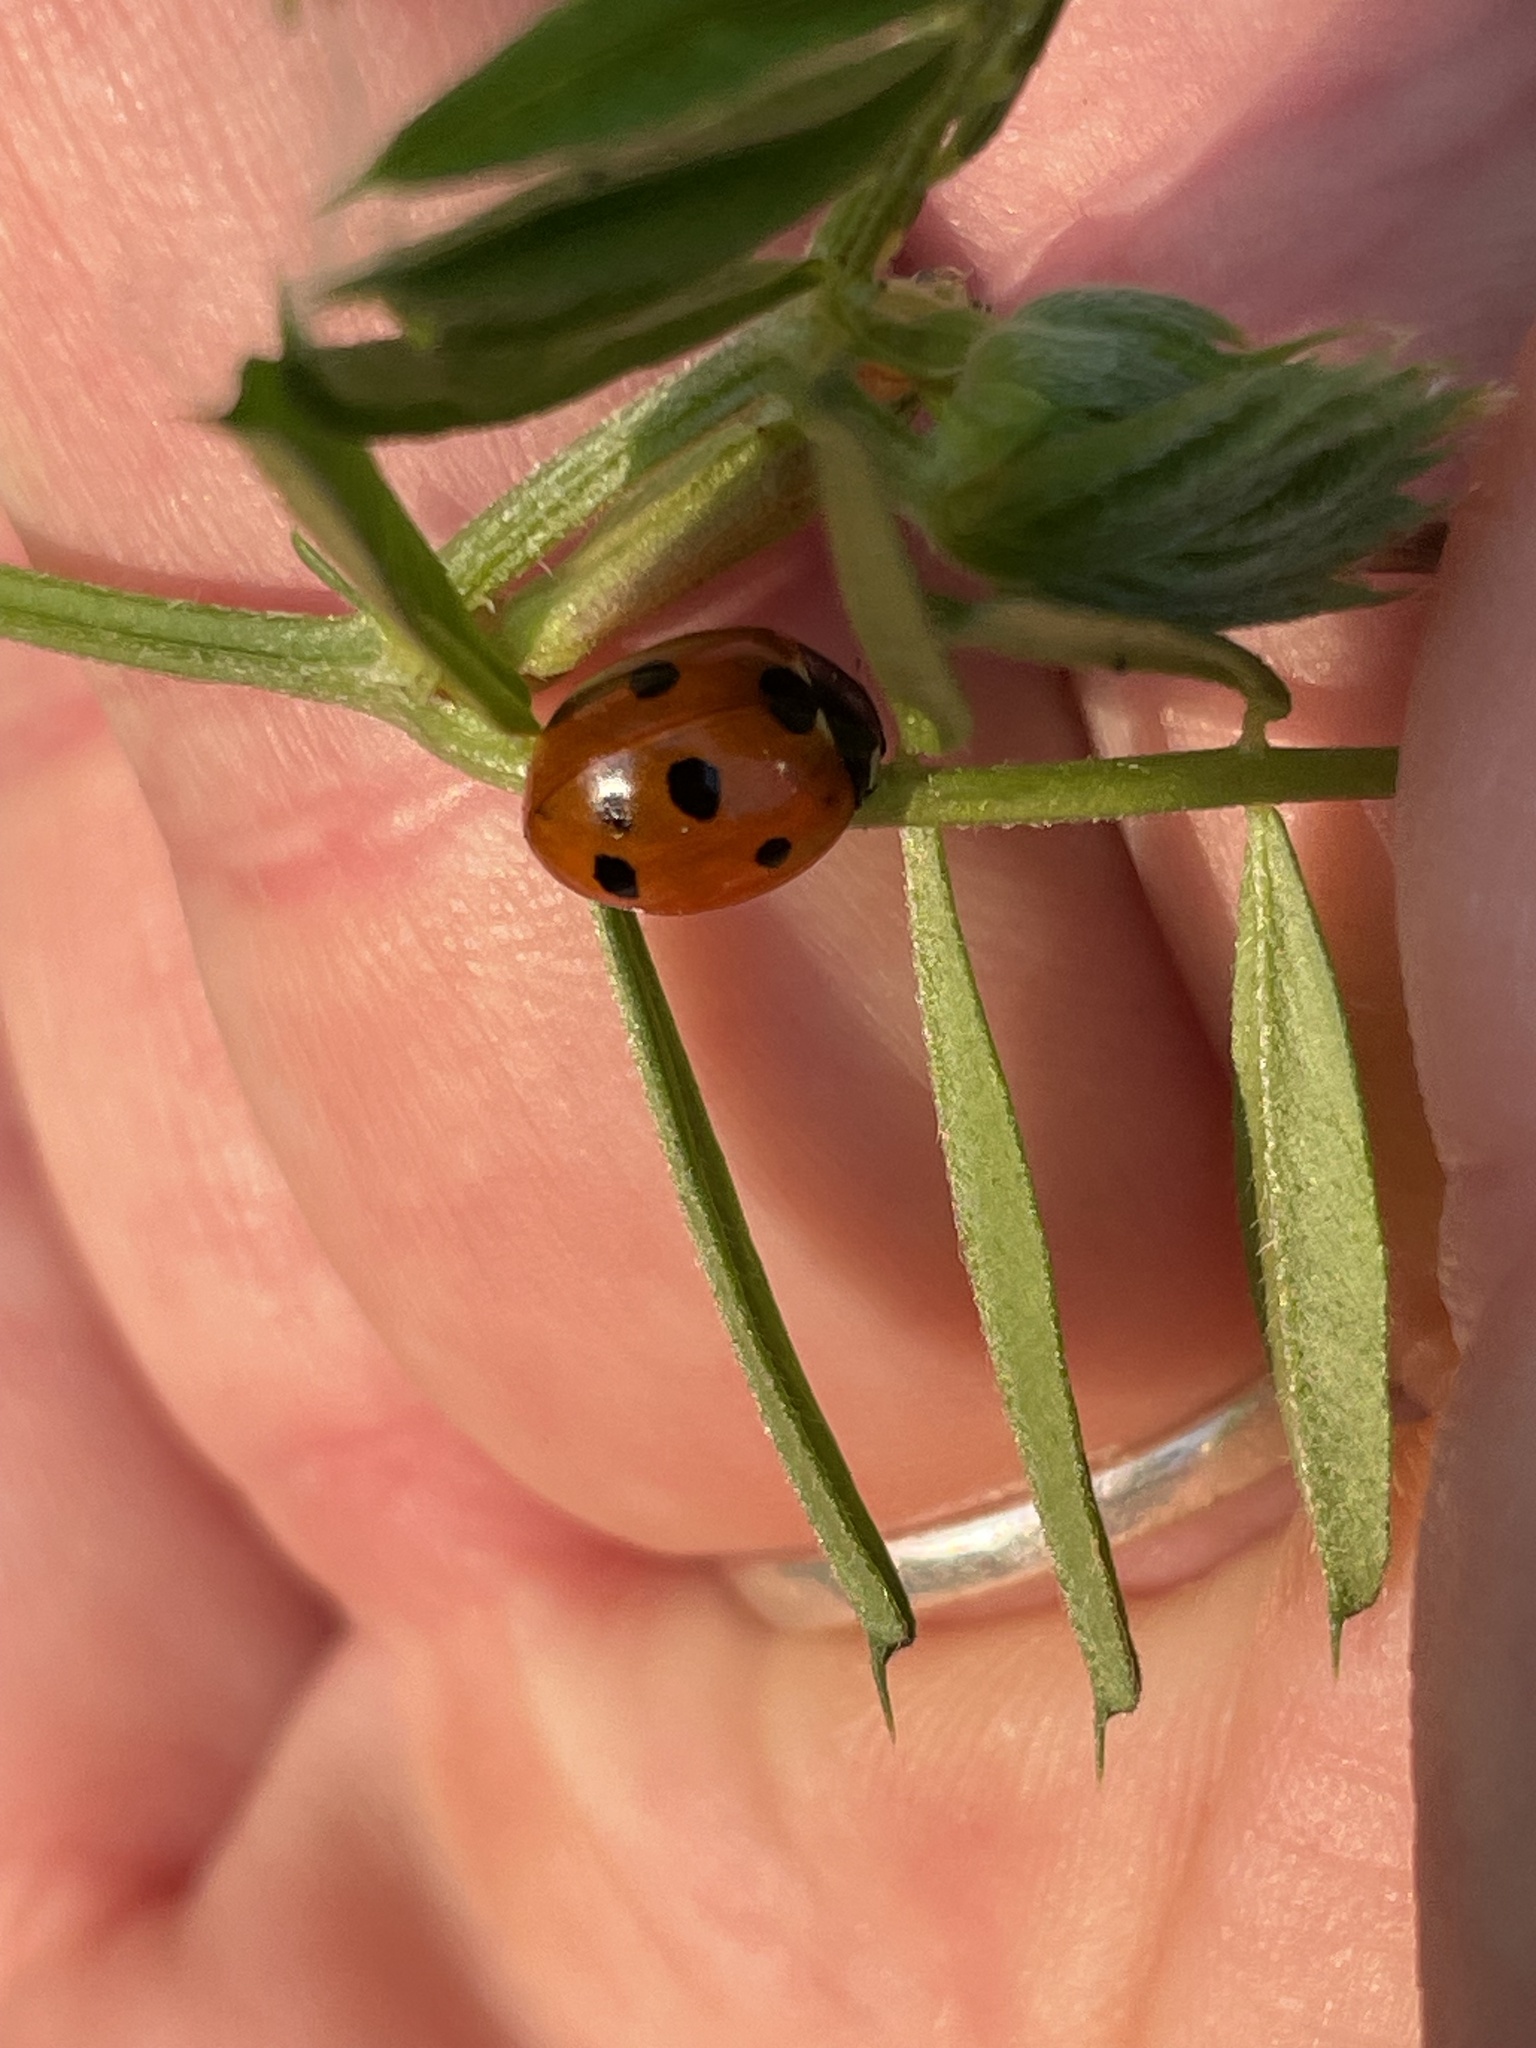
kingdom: Animalia
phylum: Arthropoda
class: Insecta
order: Coleoptera
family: Coccinellidae
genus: Coccinella
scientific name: Coccinella septempunctata
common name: Sevenspotted lady beetle
